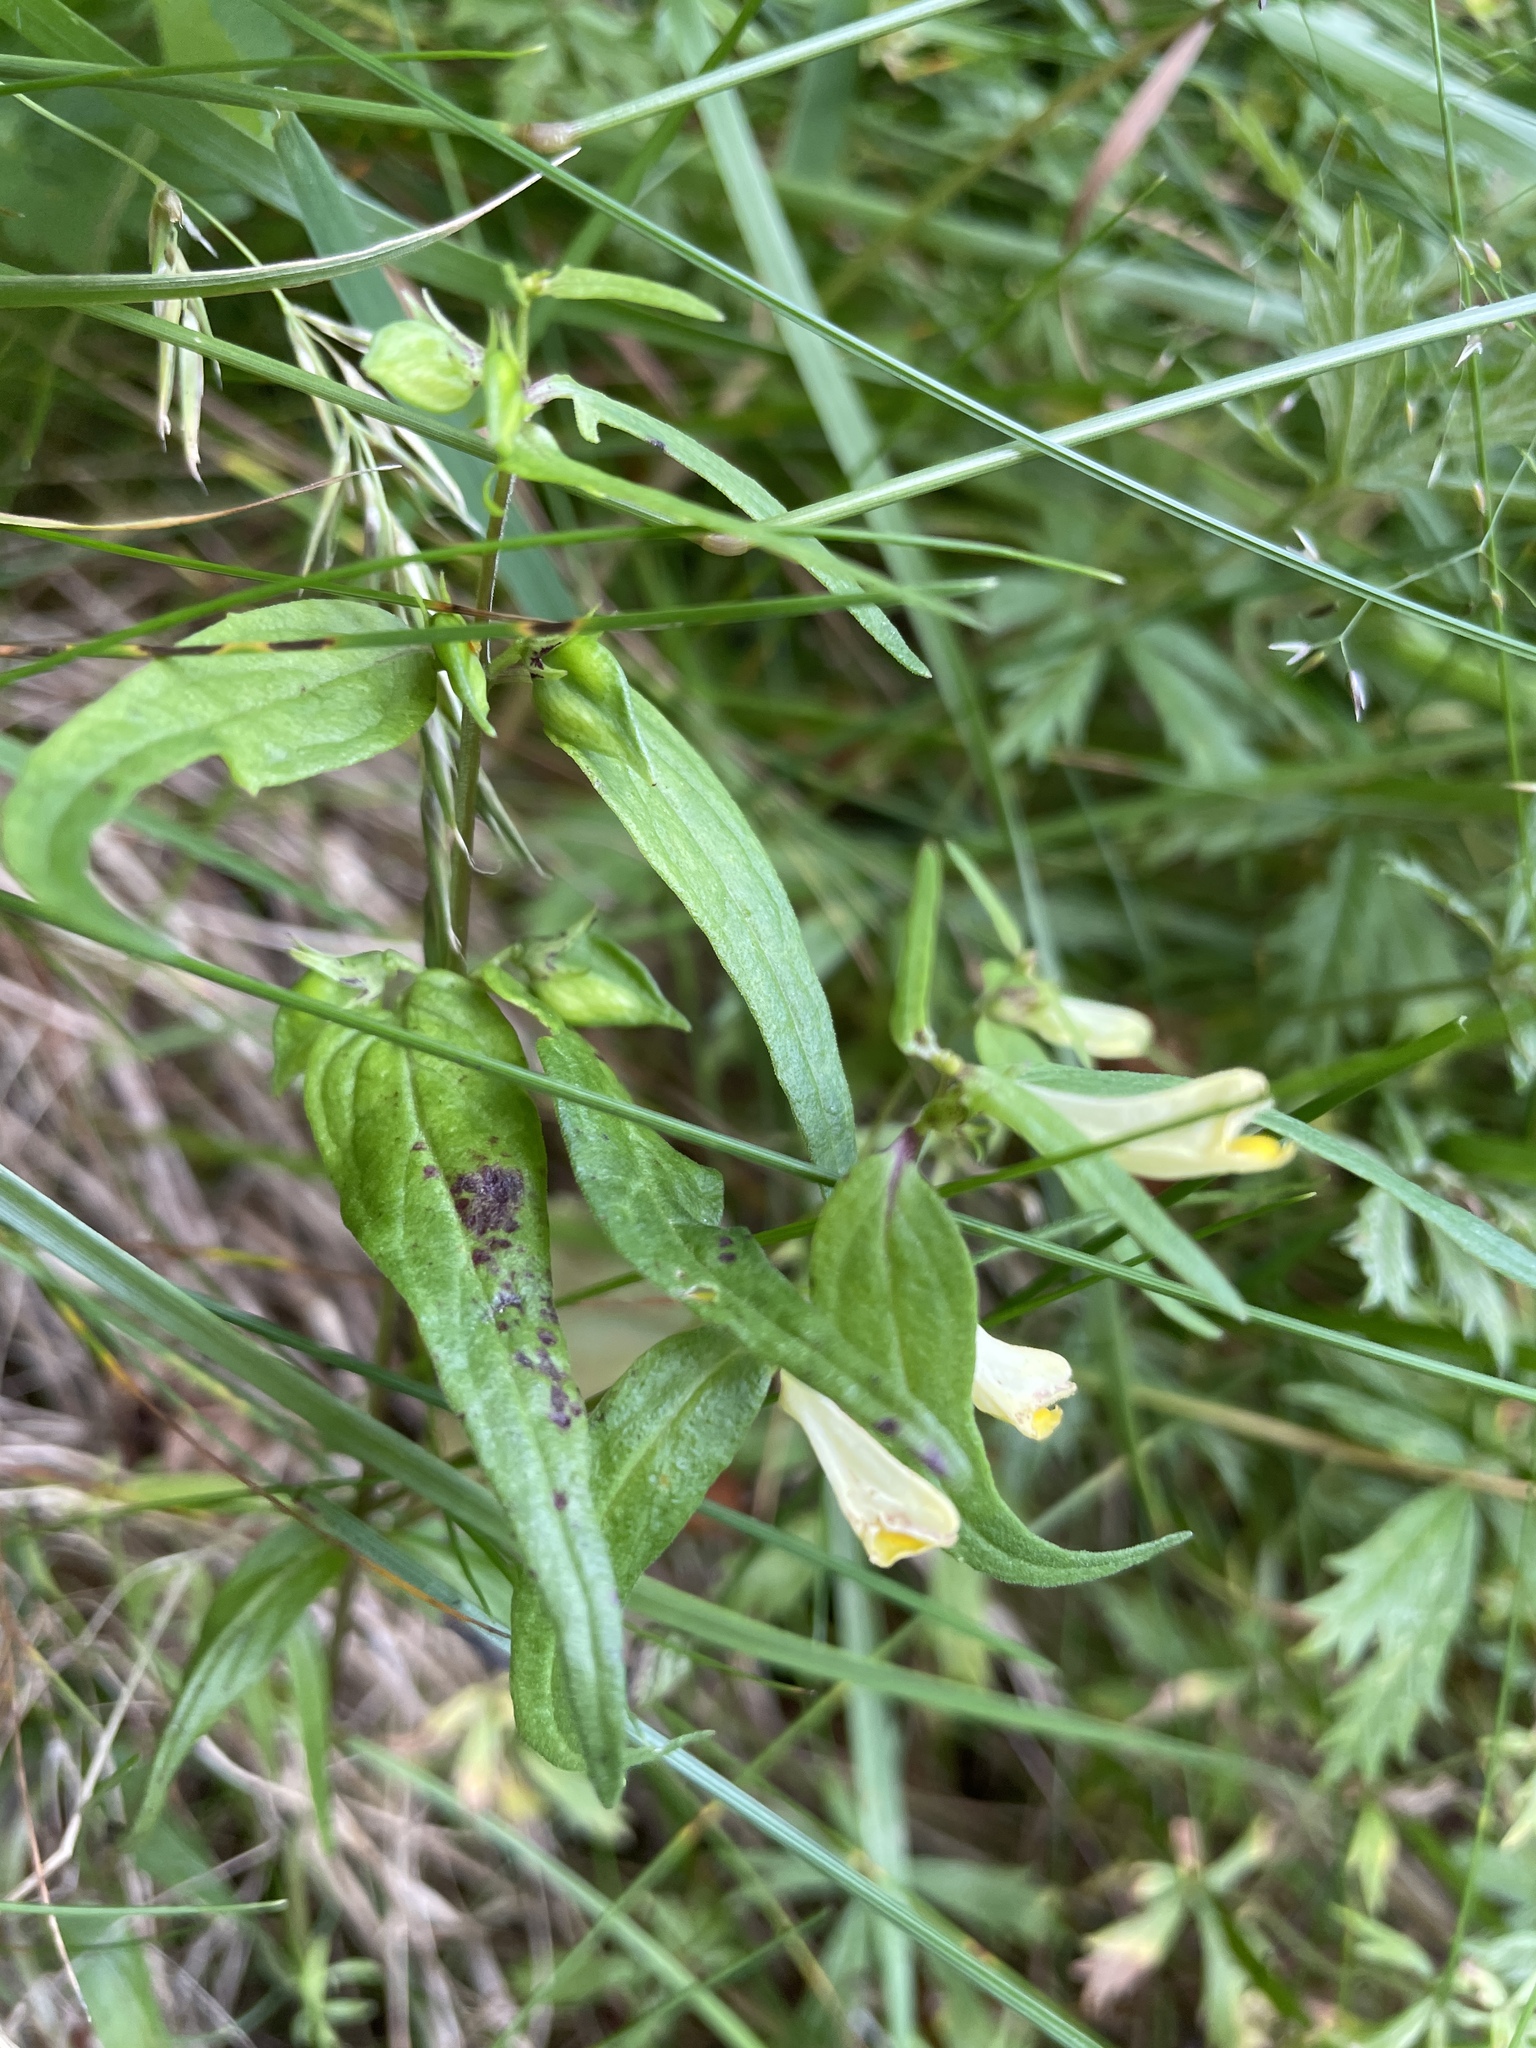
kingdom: Plantae
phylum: Tracheophyta
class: Magnoliopsida
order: Lamiales
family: Orobanchaceae
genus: Melampyrum
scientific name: Melampyrum pratense
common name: Common cow-wheat
